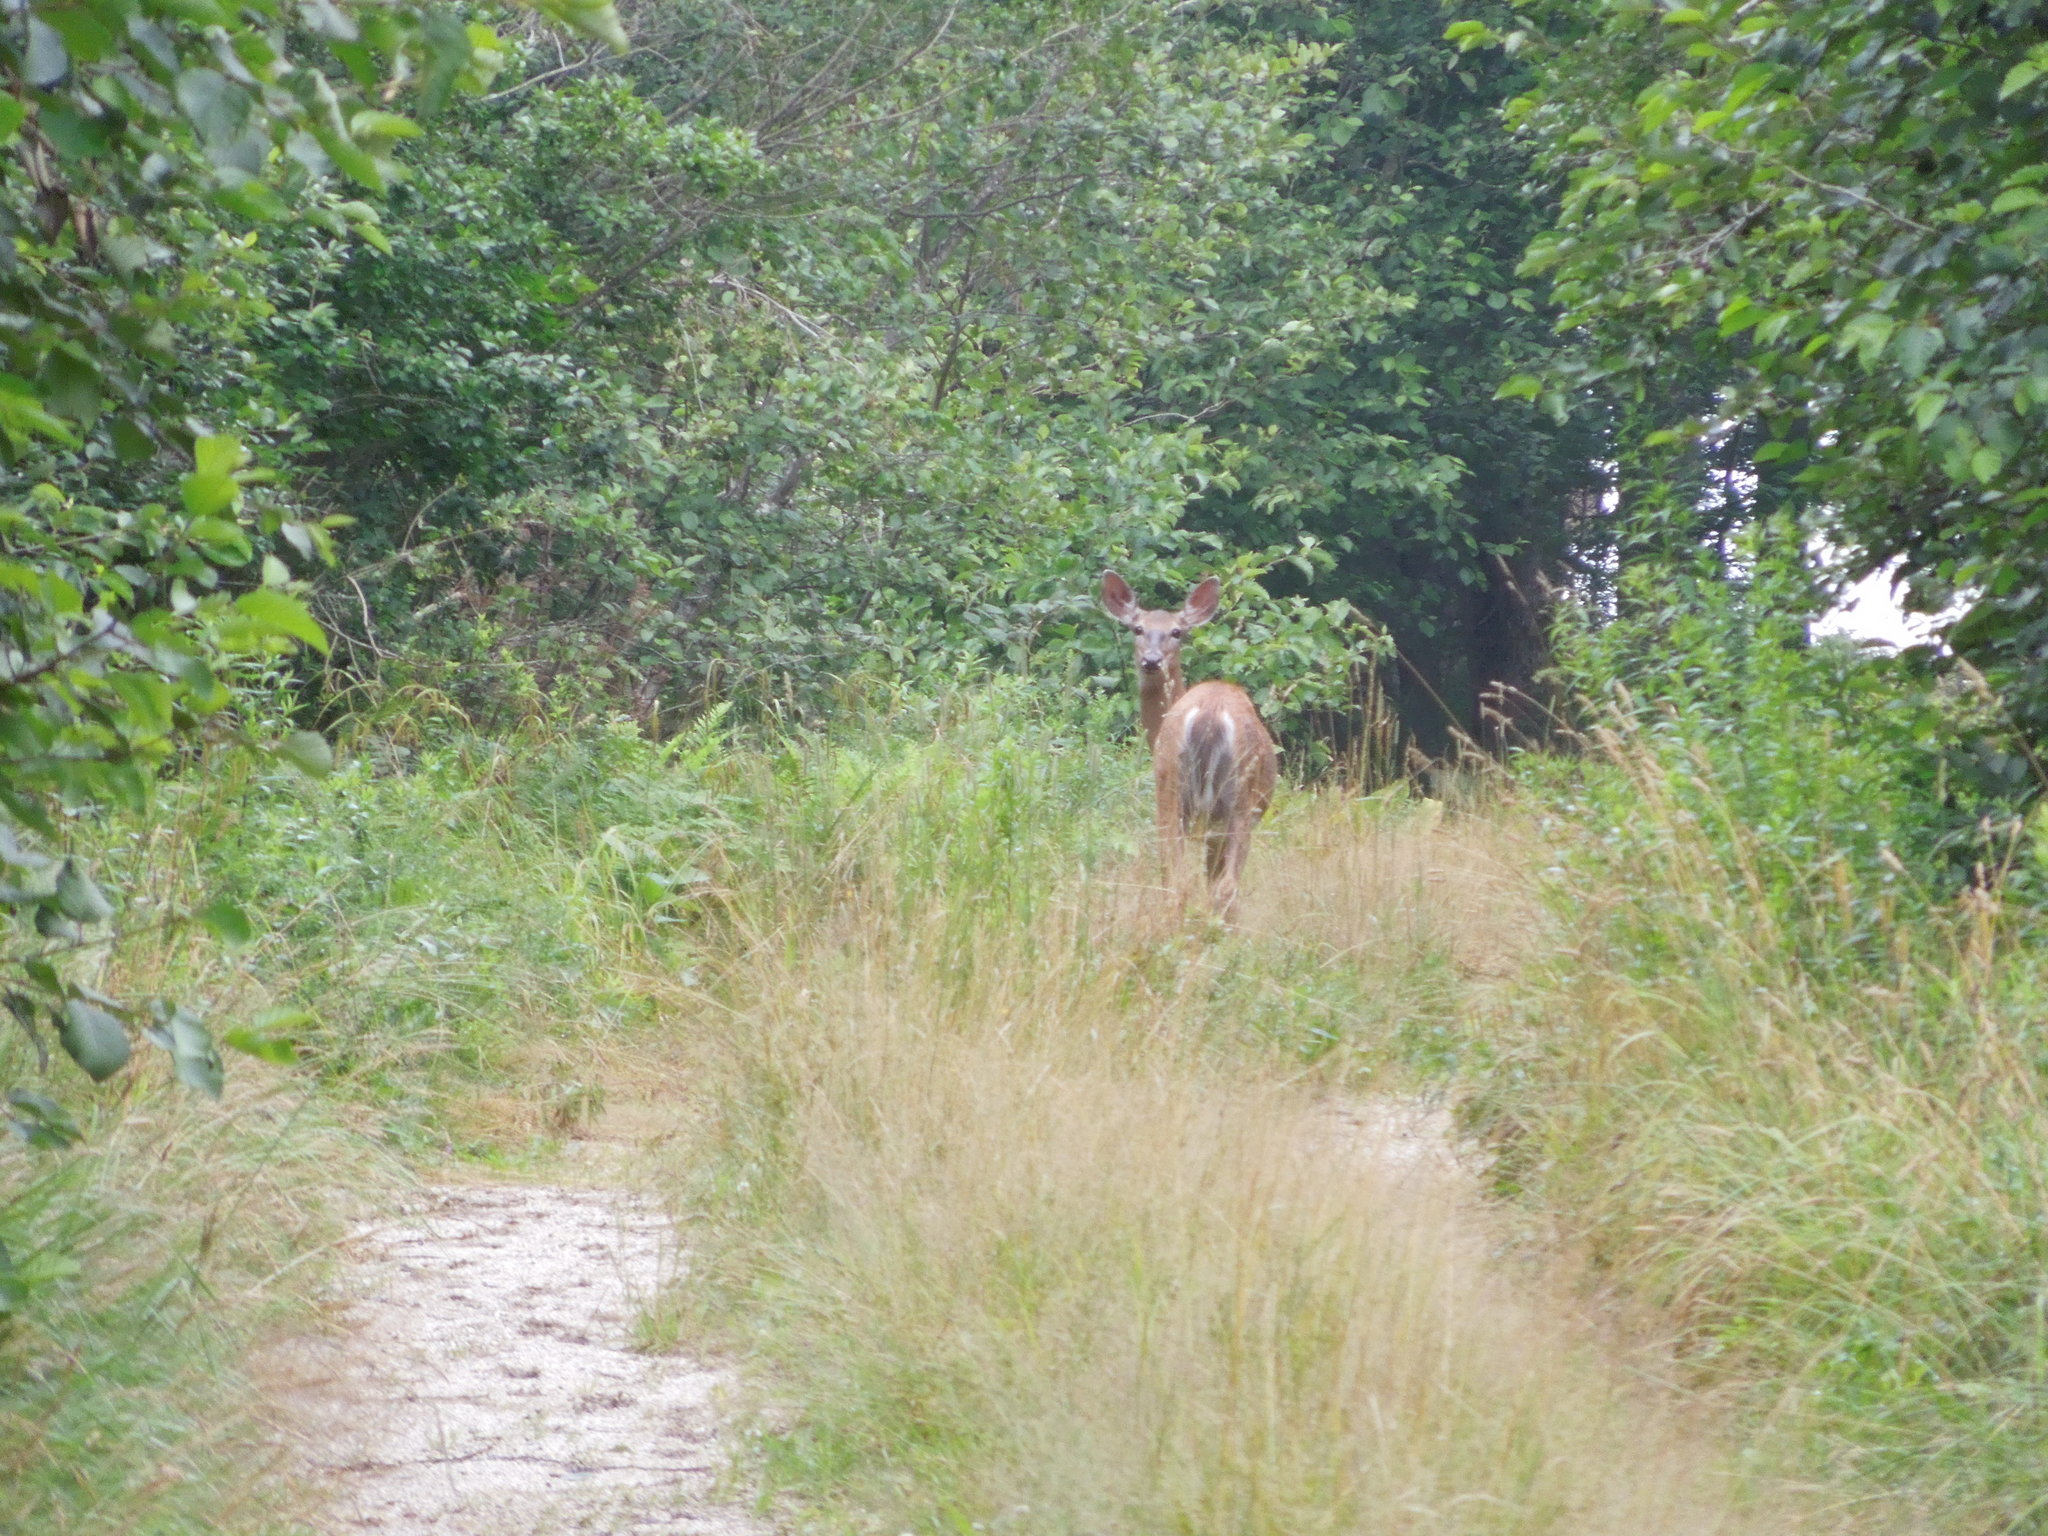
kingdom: Animalia
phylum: Chordata
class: Mammalia
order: Artiodactyla
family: Cervidae
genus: Odocoileus
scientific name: Odocoileus virginianus
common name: White-tailed deer
